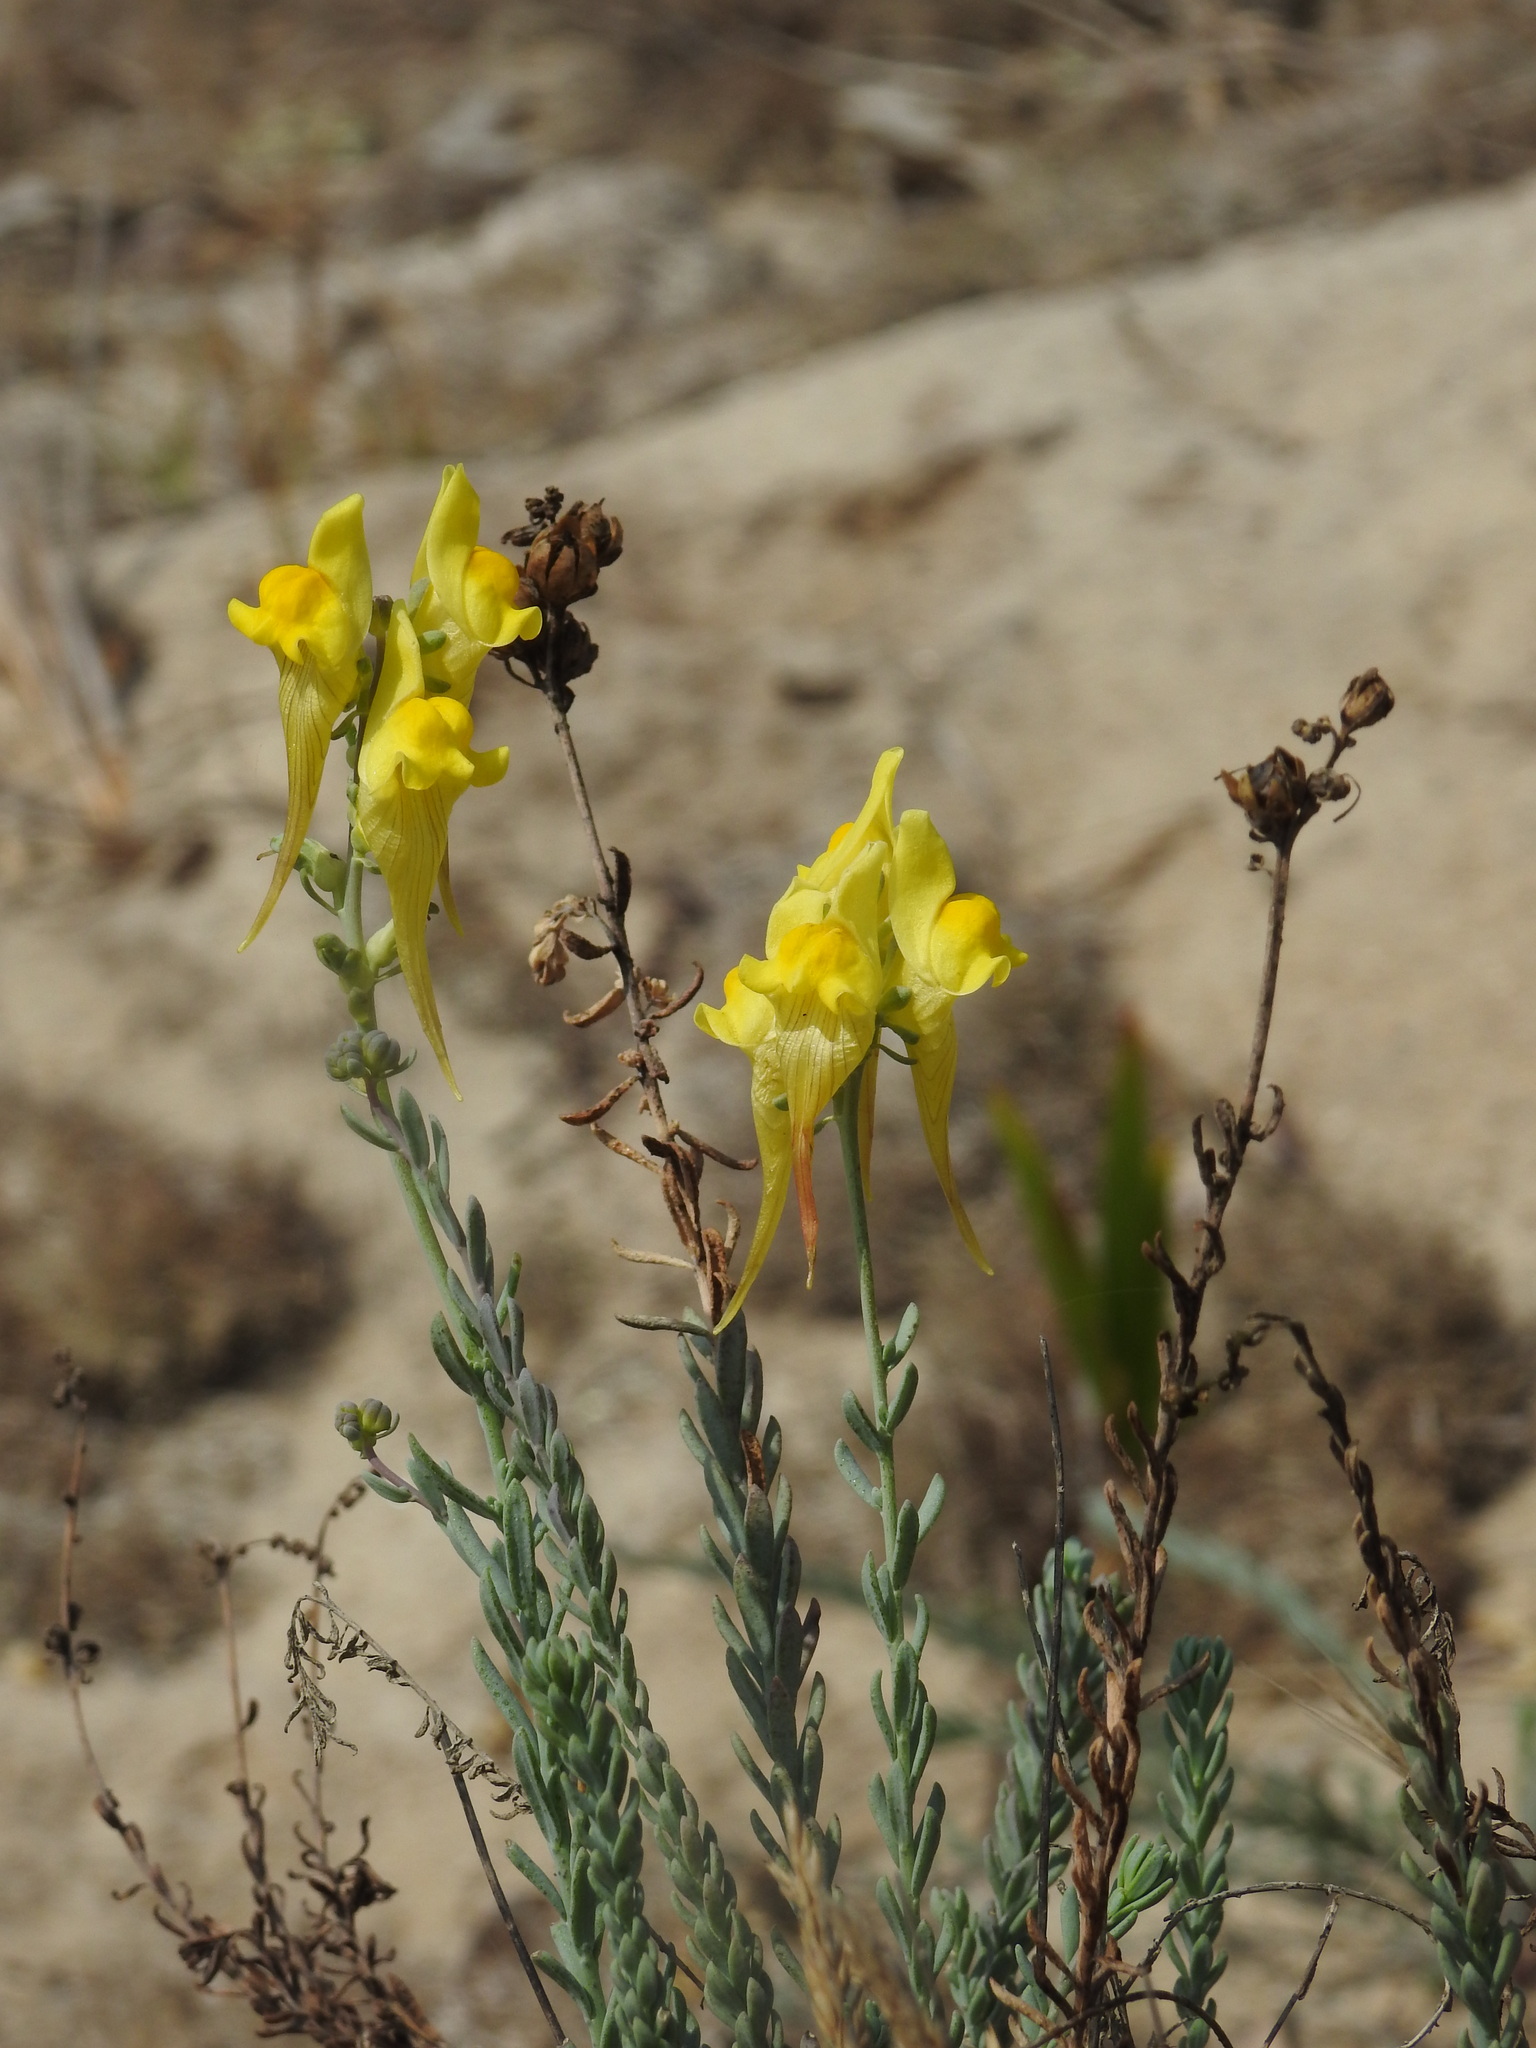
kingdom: Plantae
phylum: Tracheophyta
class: Magnoliopsida
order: Lamiales
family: Plantaginaceae
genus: Linaria
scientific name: Linaria polygalifolia
